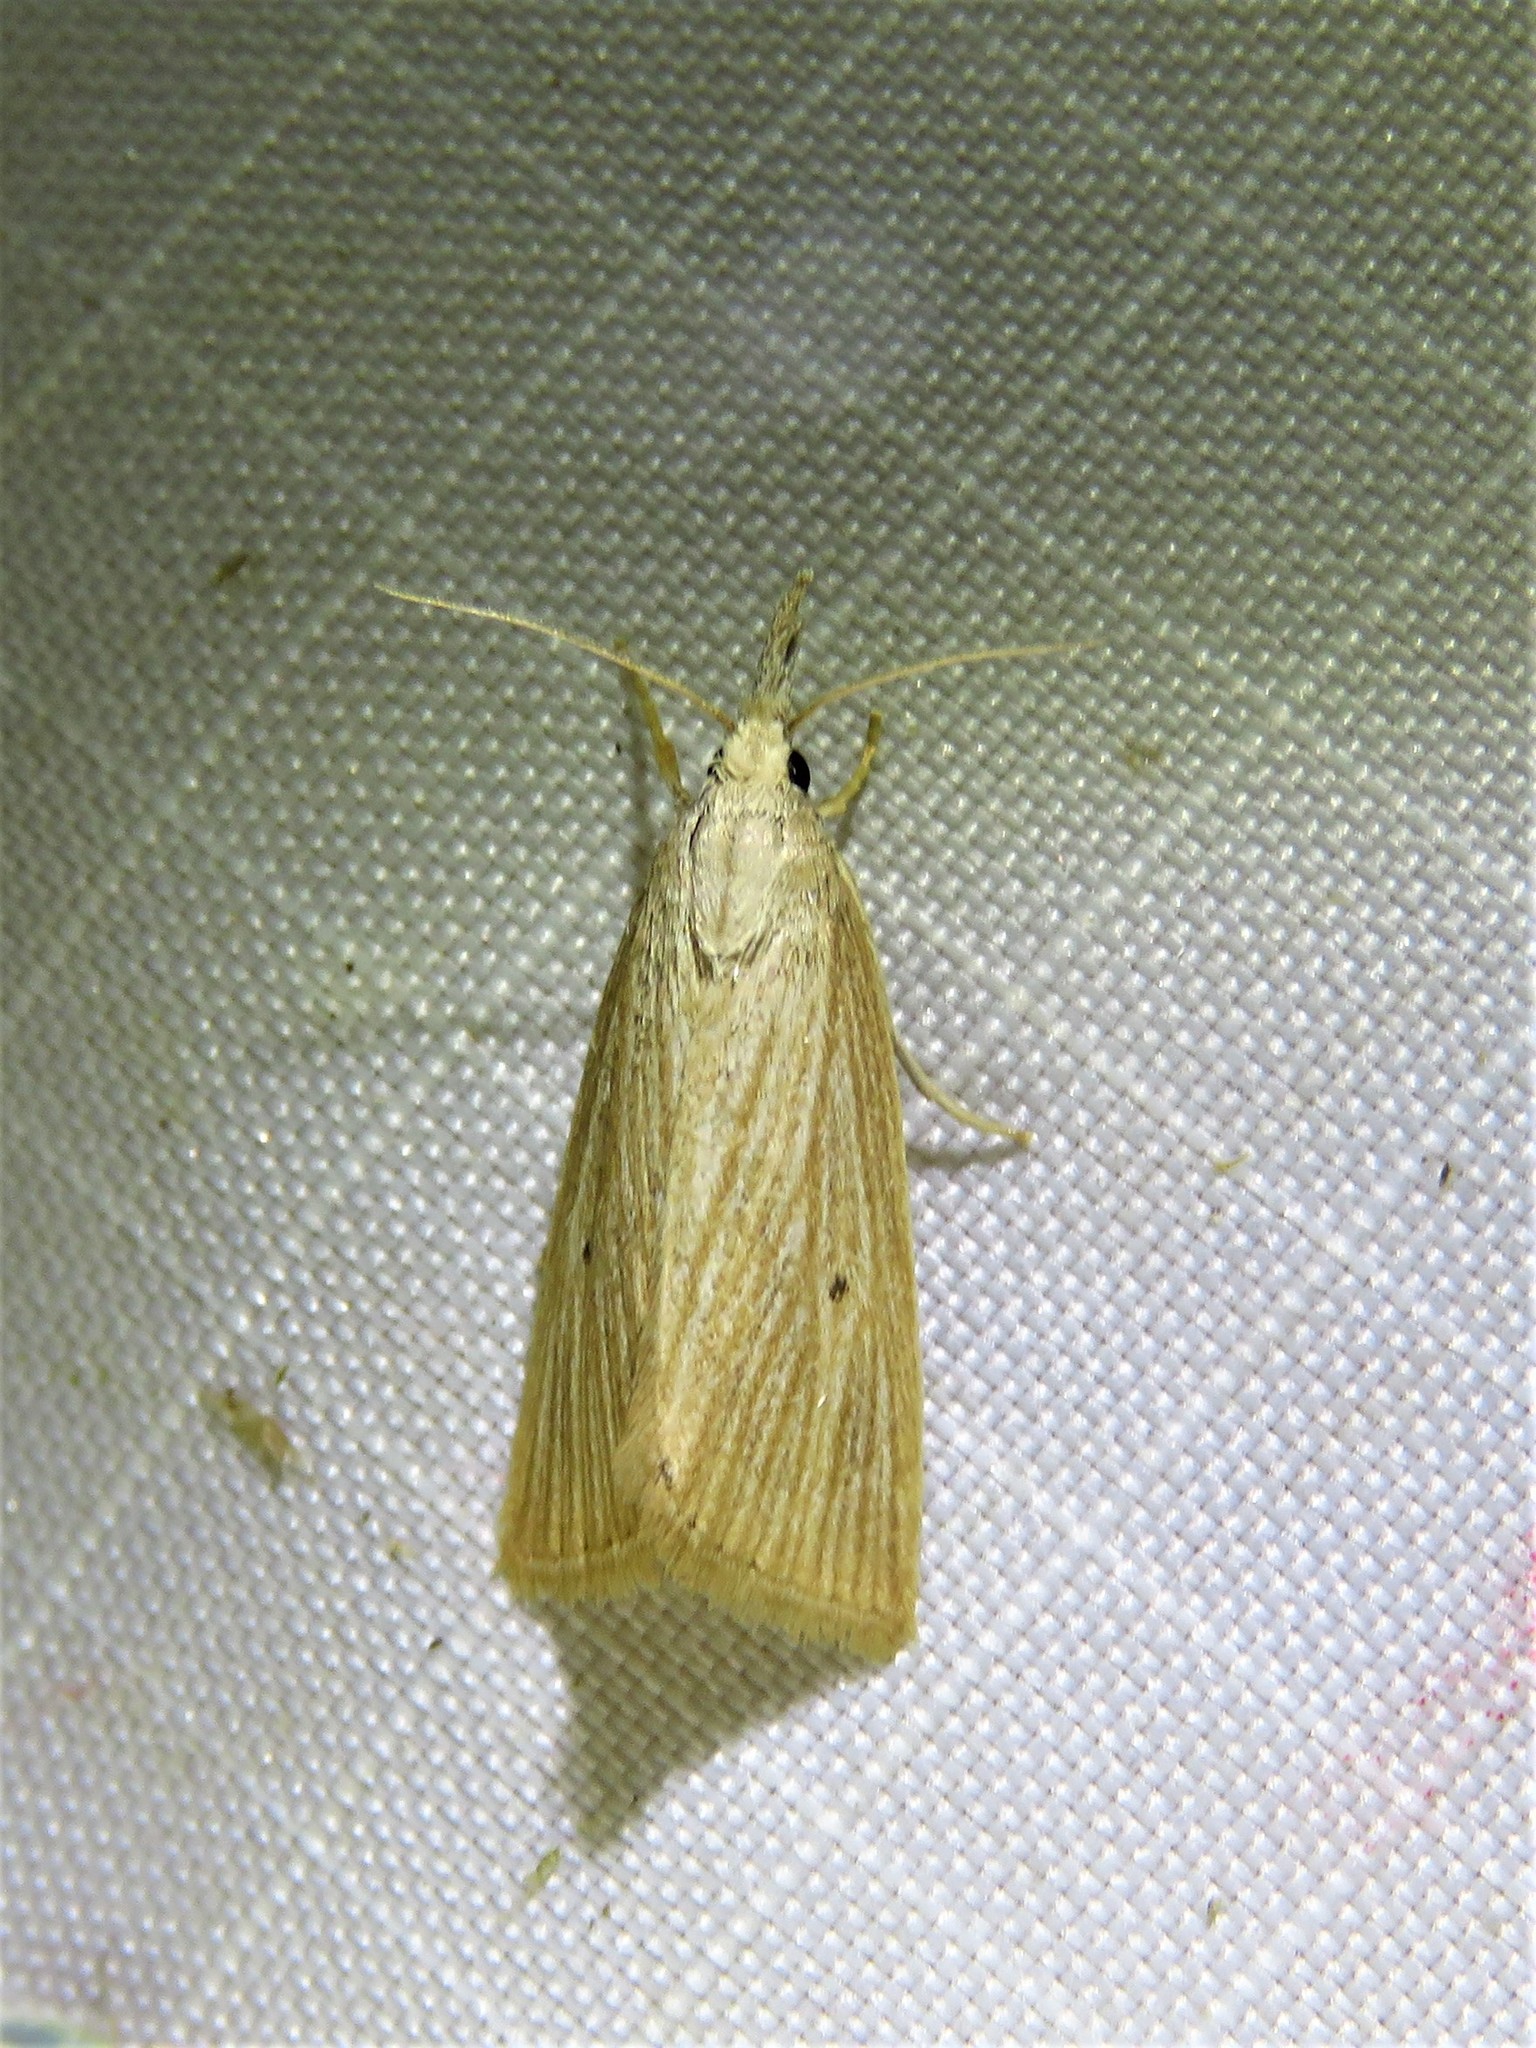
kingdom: Animalia
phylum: Arthropoda
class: Insecta
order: Lepidoptera
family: Crambidae
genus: Eoreuma
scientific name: Eoreuma densellus
